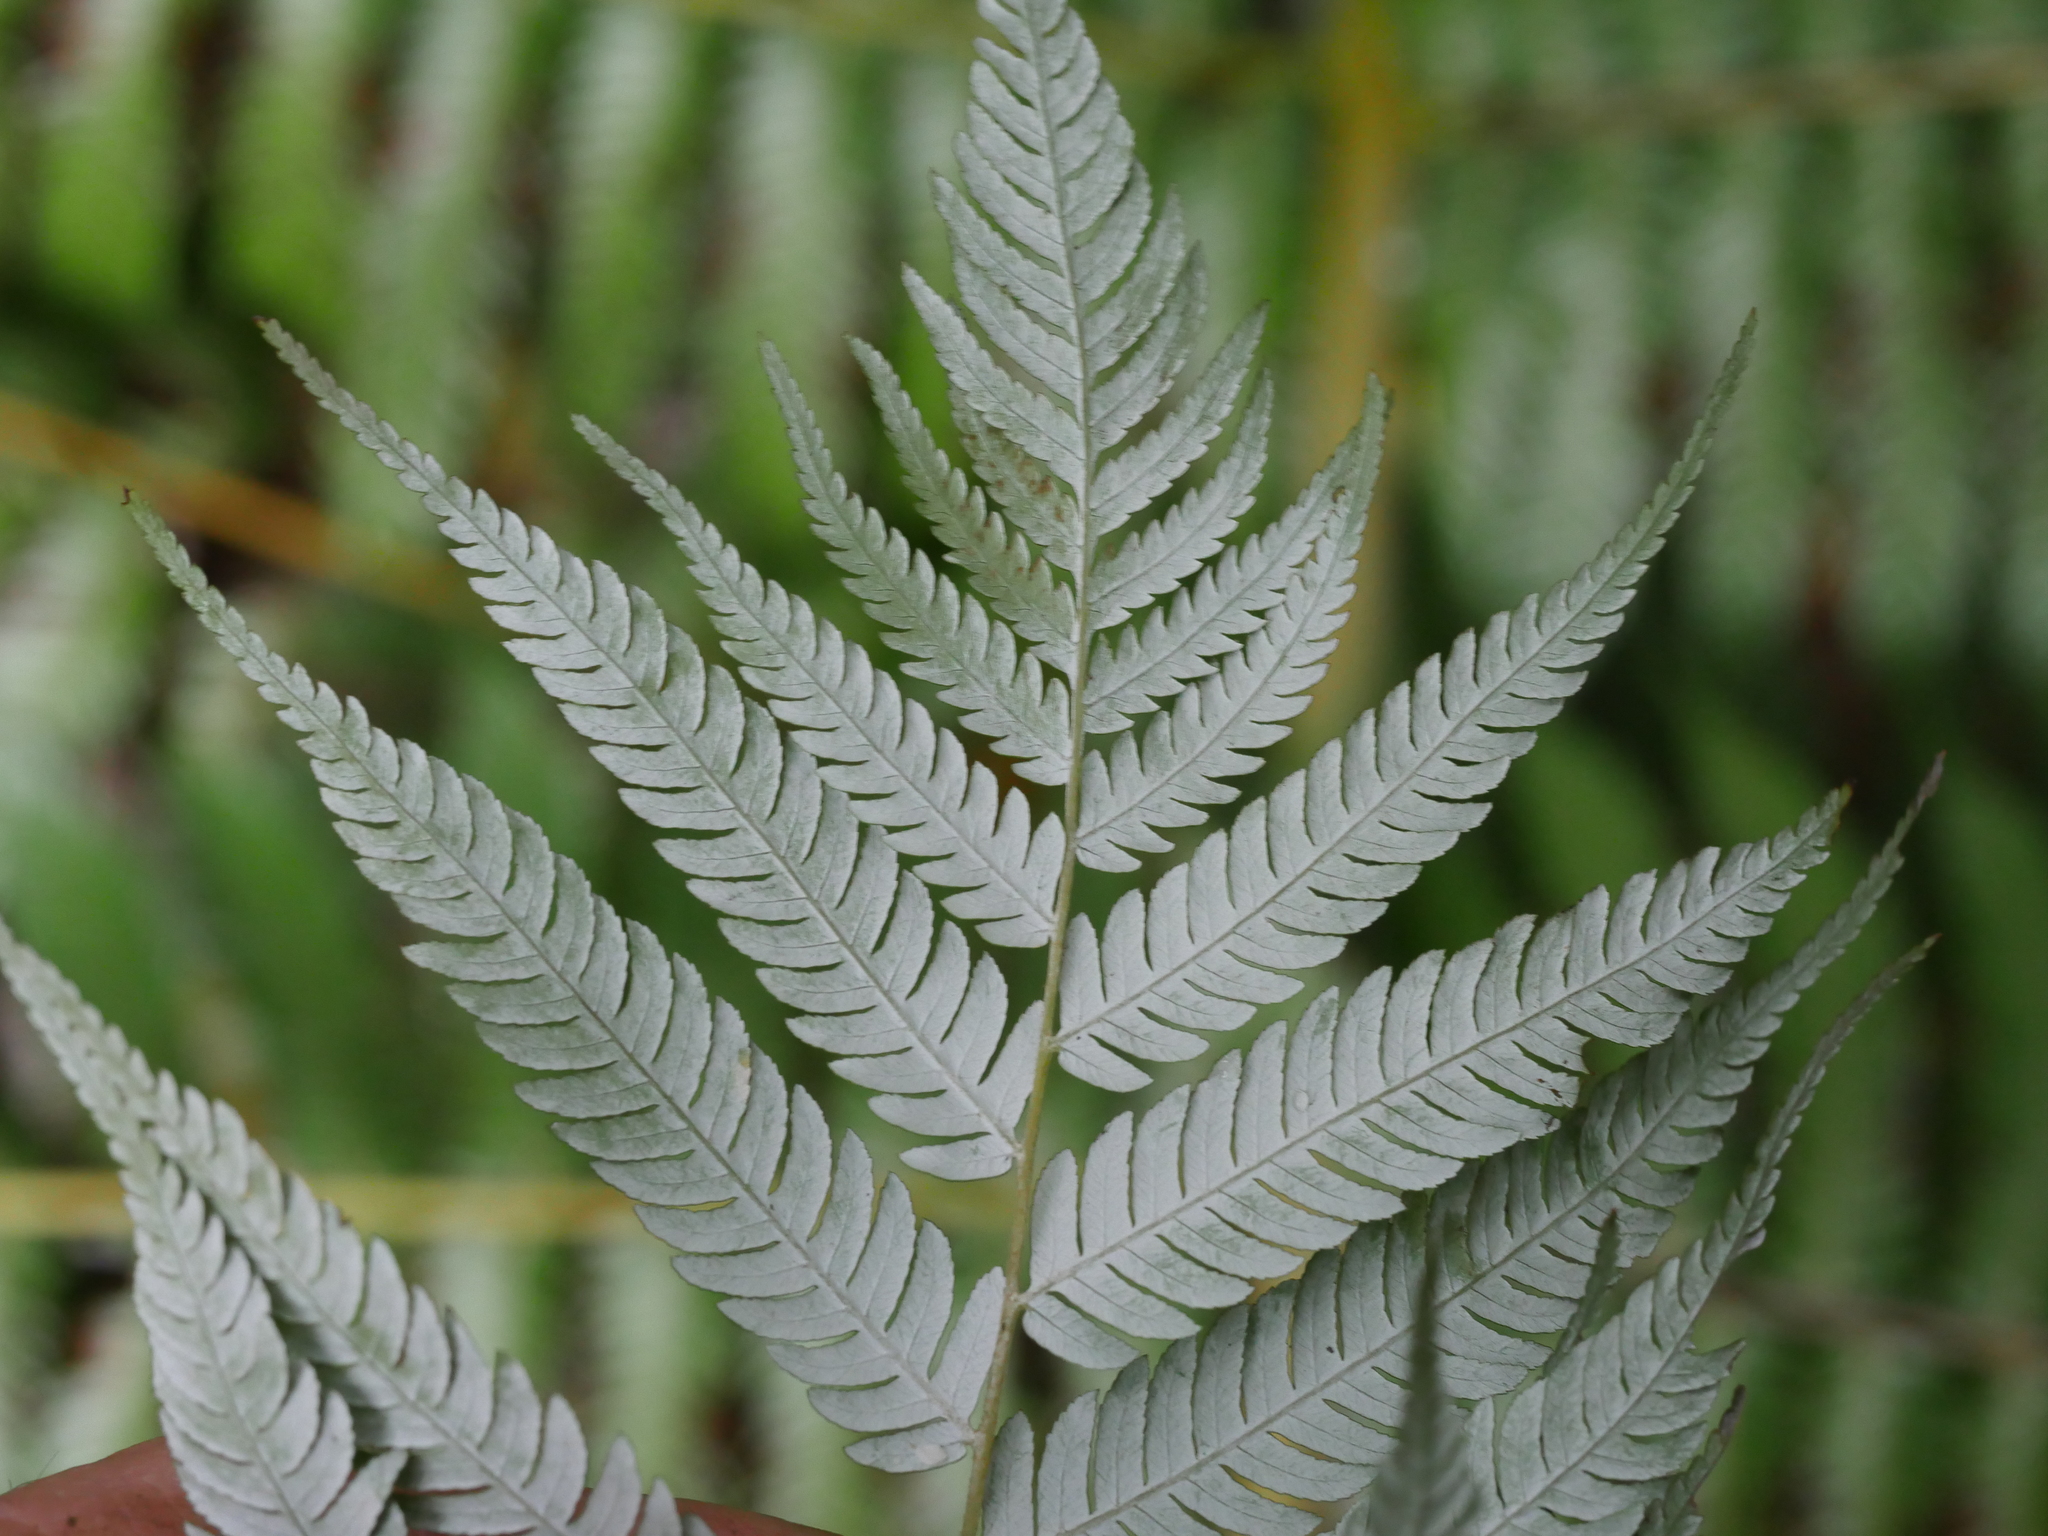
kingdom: Plantae
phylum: Tracheophyta
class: Polypodiopsida
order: Cyatheales
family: Cyatheaceae
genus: Alsophila
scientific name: Alsophila dealbata
